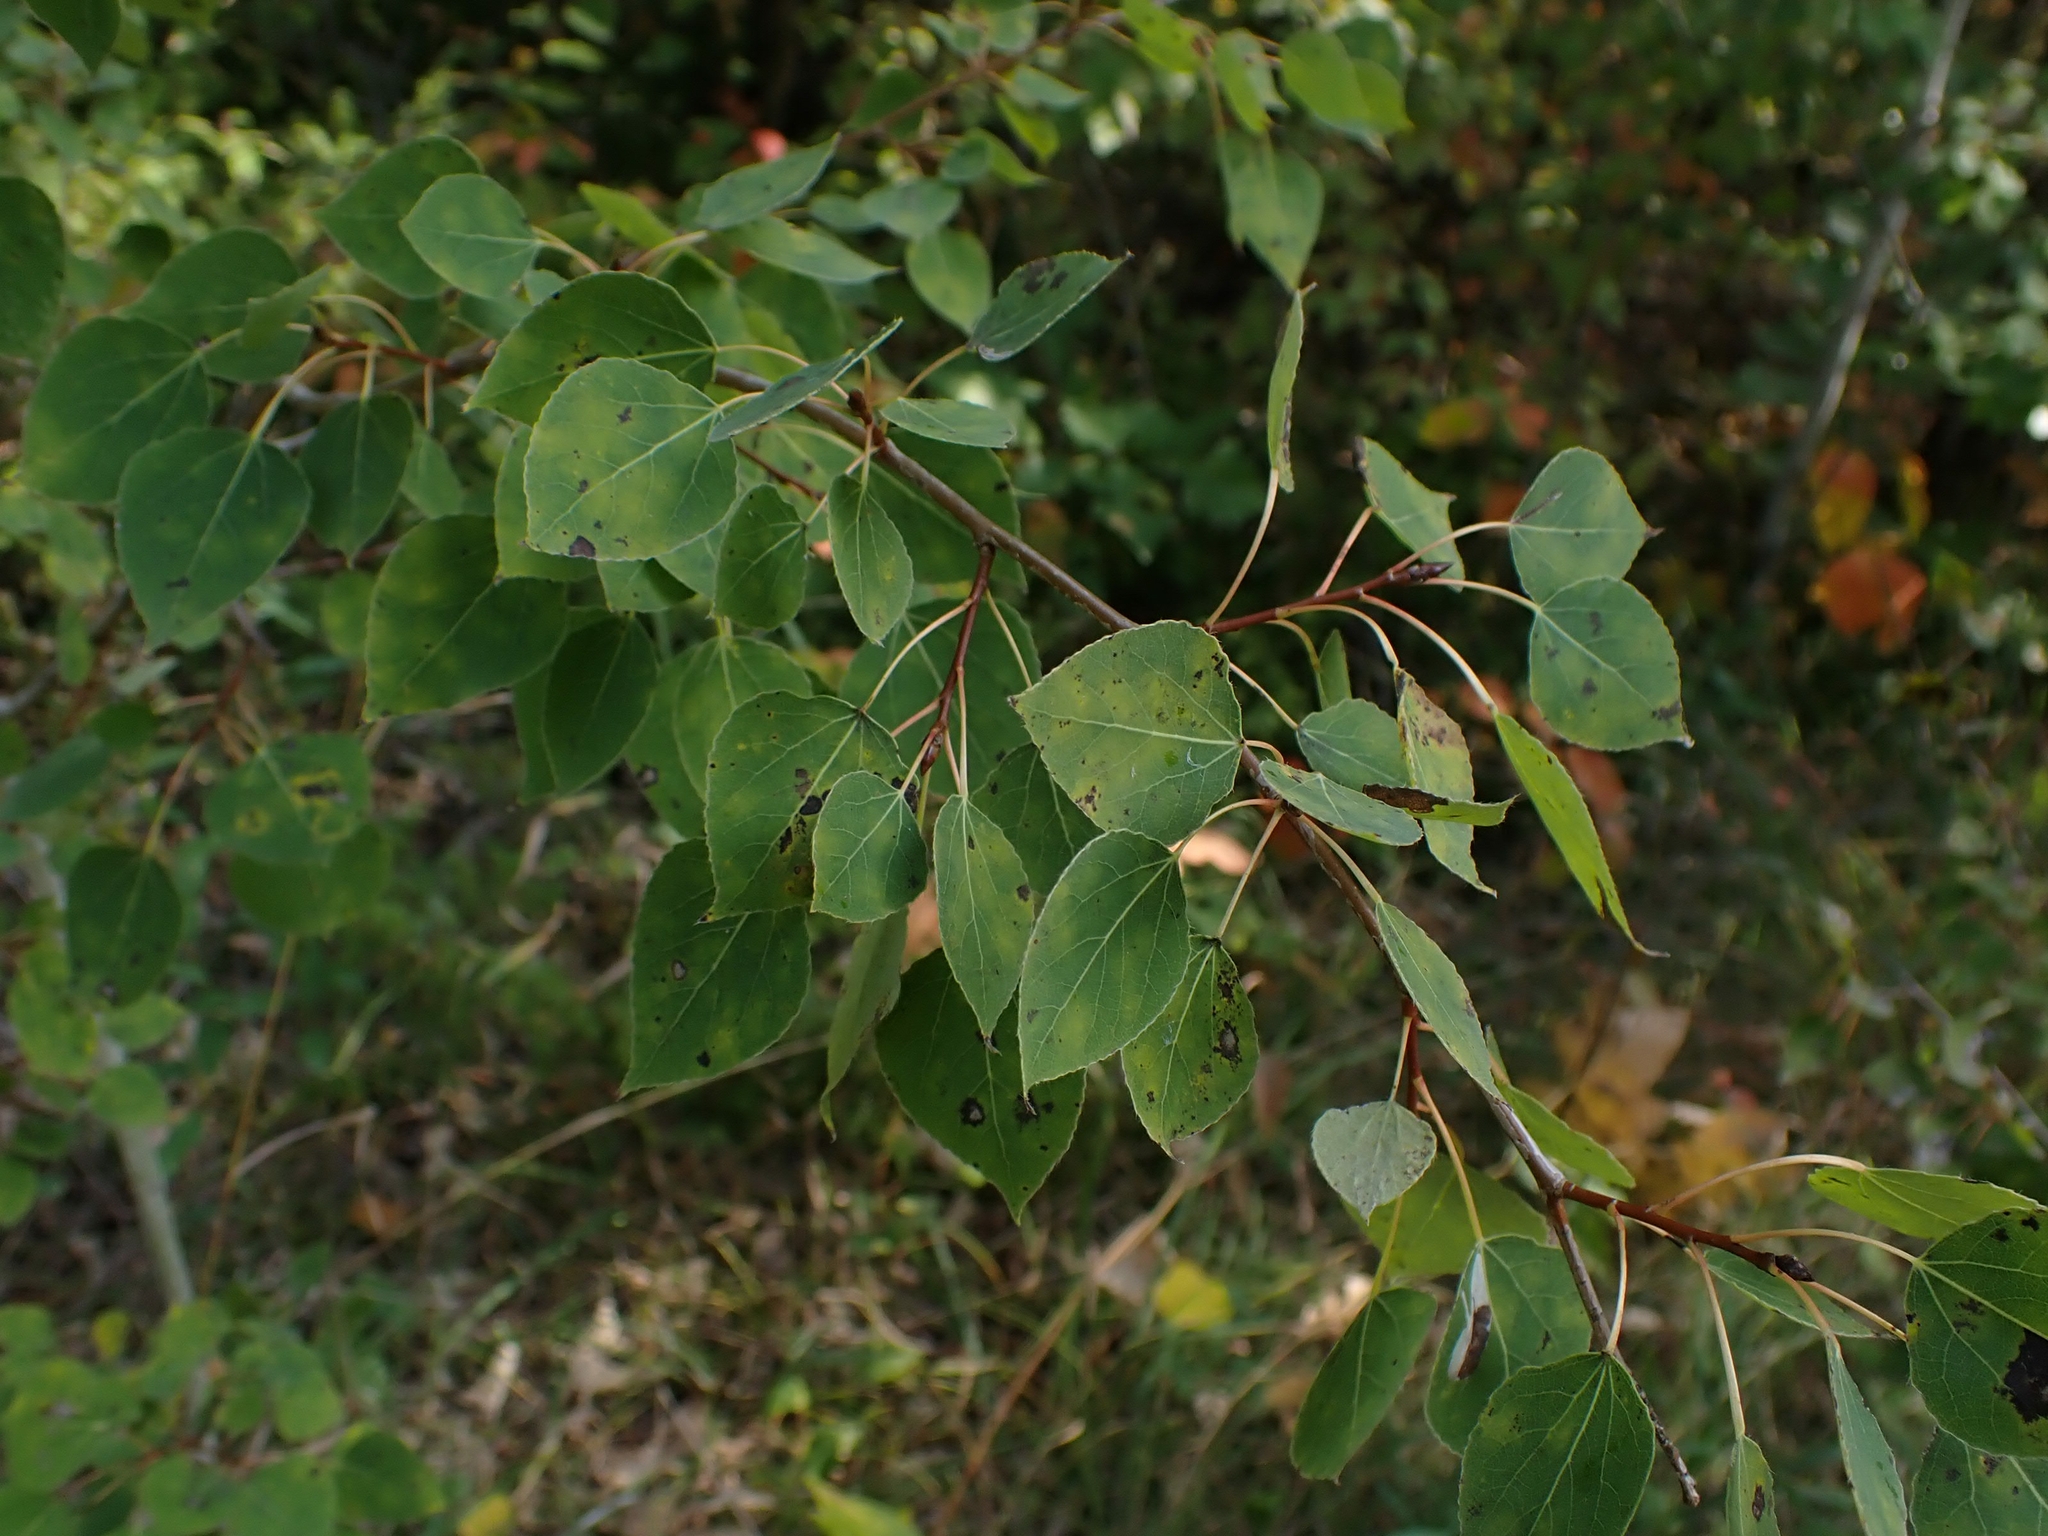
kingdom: Plantae
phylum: Tracheophyta
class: Magnoliopsida
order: Malpighiales
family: Salicaceae
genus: Populus
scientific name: Populus tremuloides
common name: Quaking aspen
